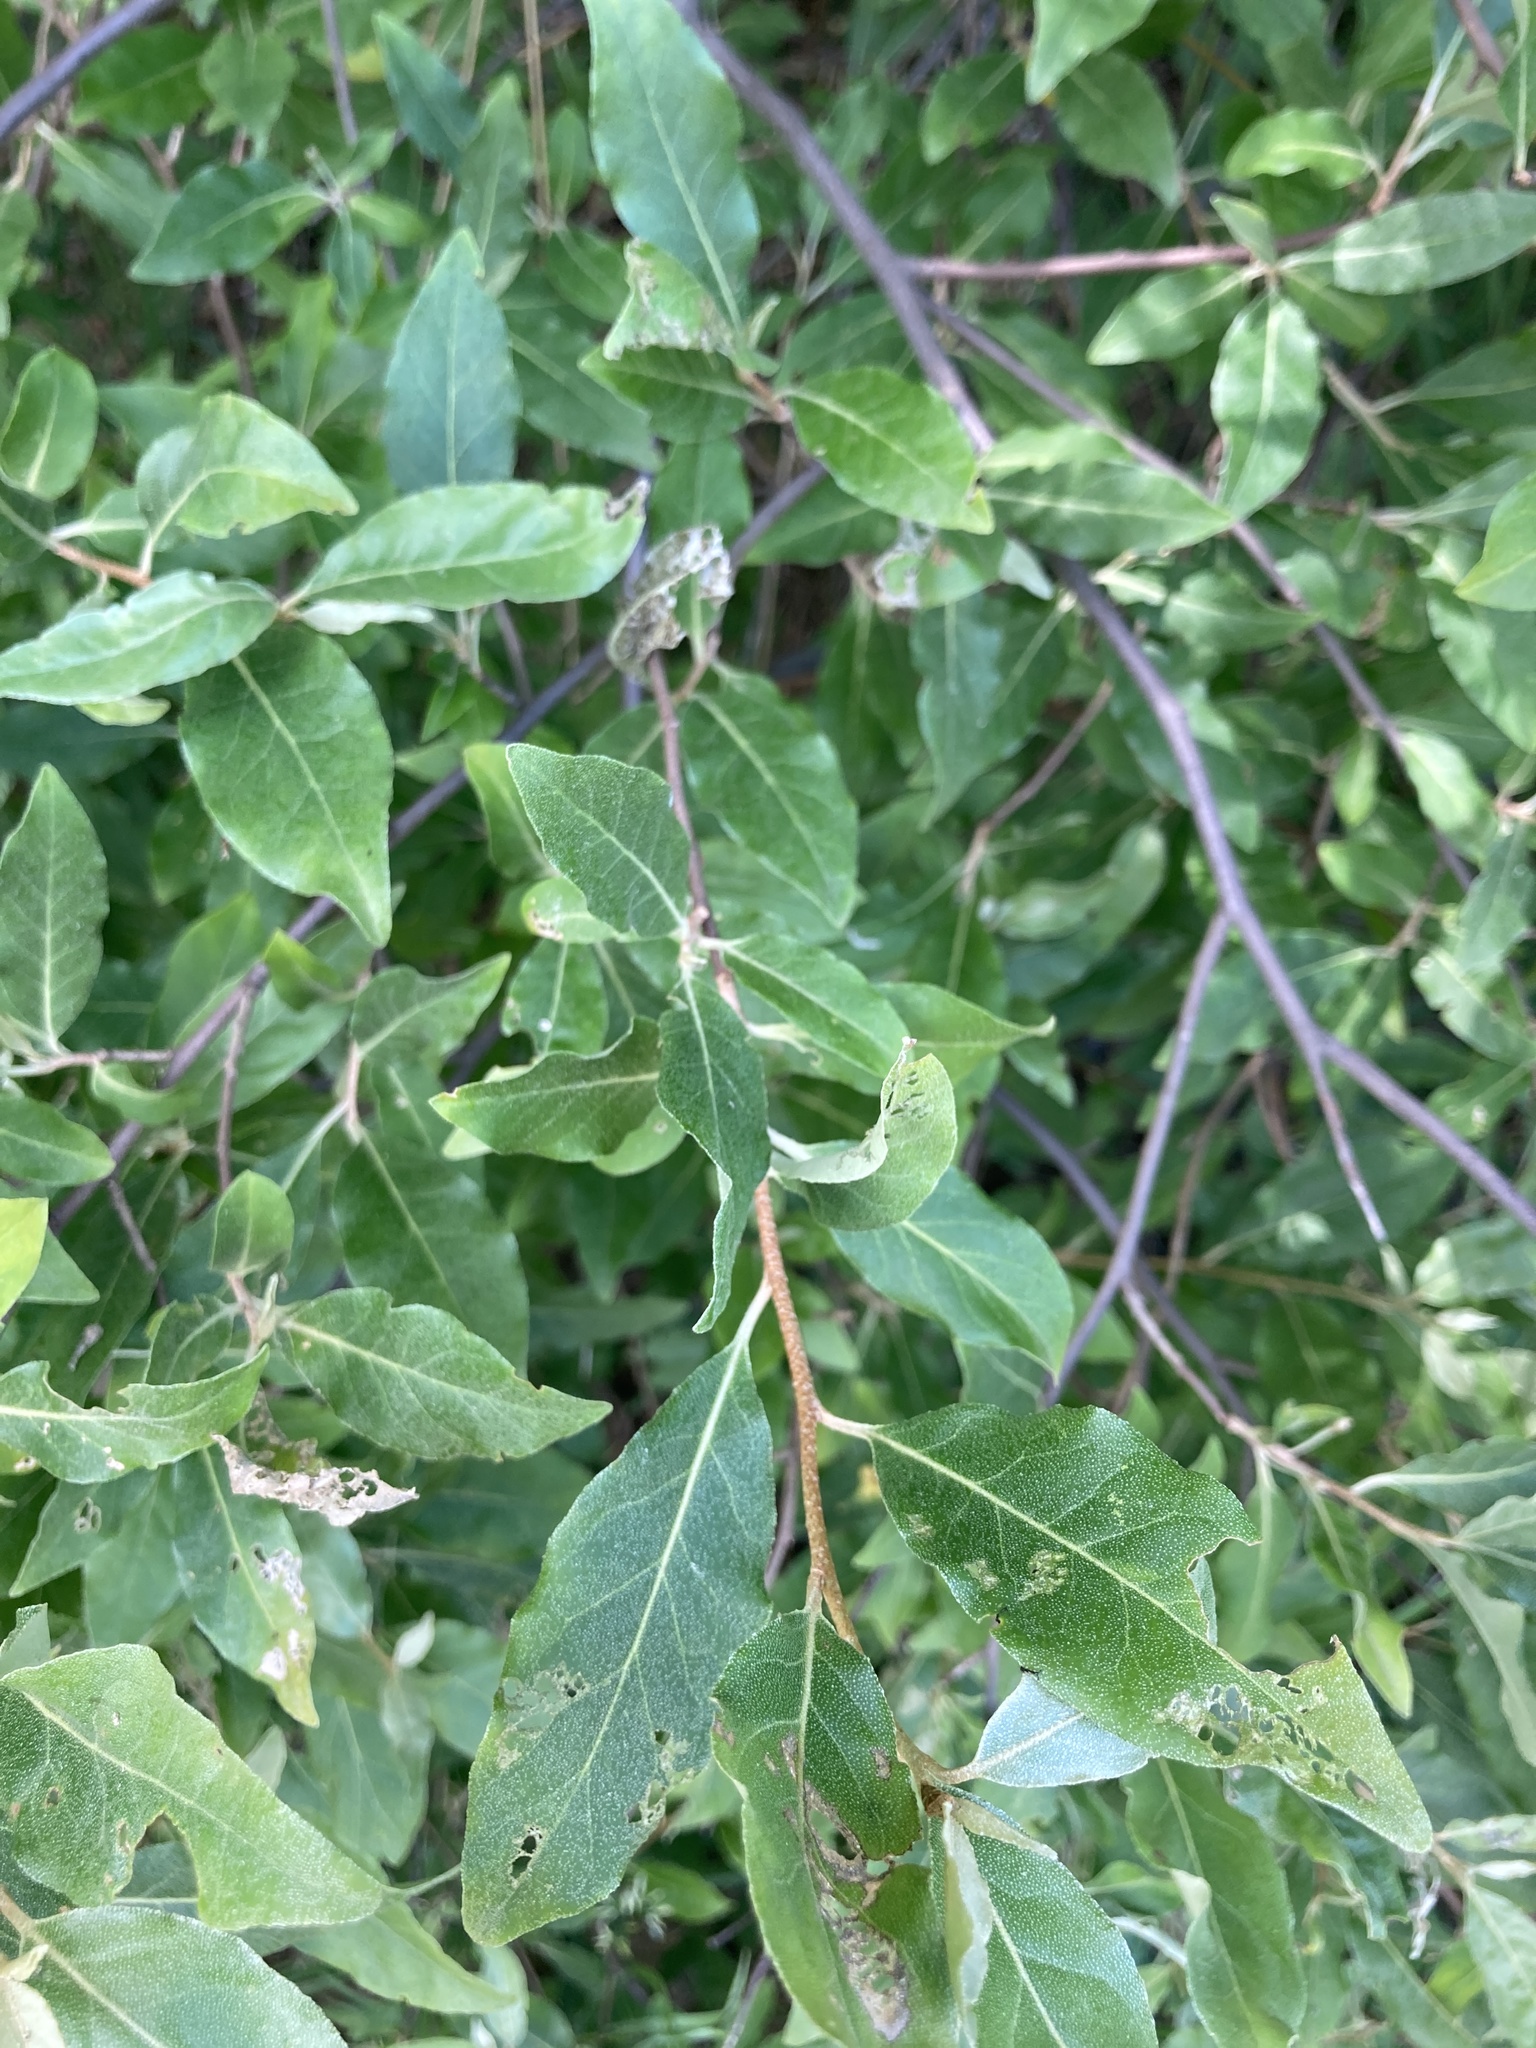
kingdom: Plantae
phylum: Tracheophyta
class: Magnoliopsida
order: Rosales
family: Elaeagnaceae
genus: Elaeagnus
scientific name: Elaeagnus umbellata
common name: Autumn olive
